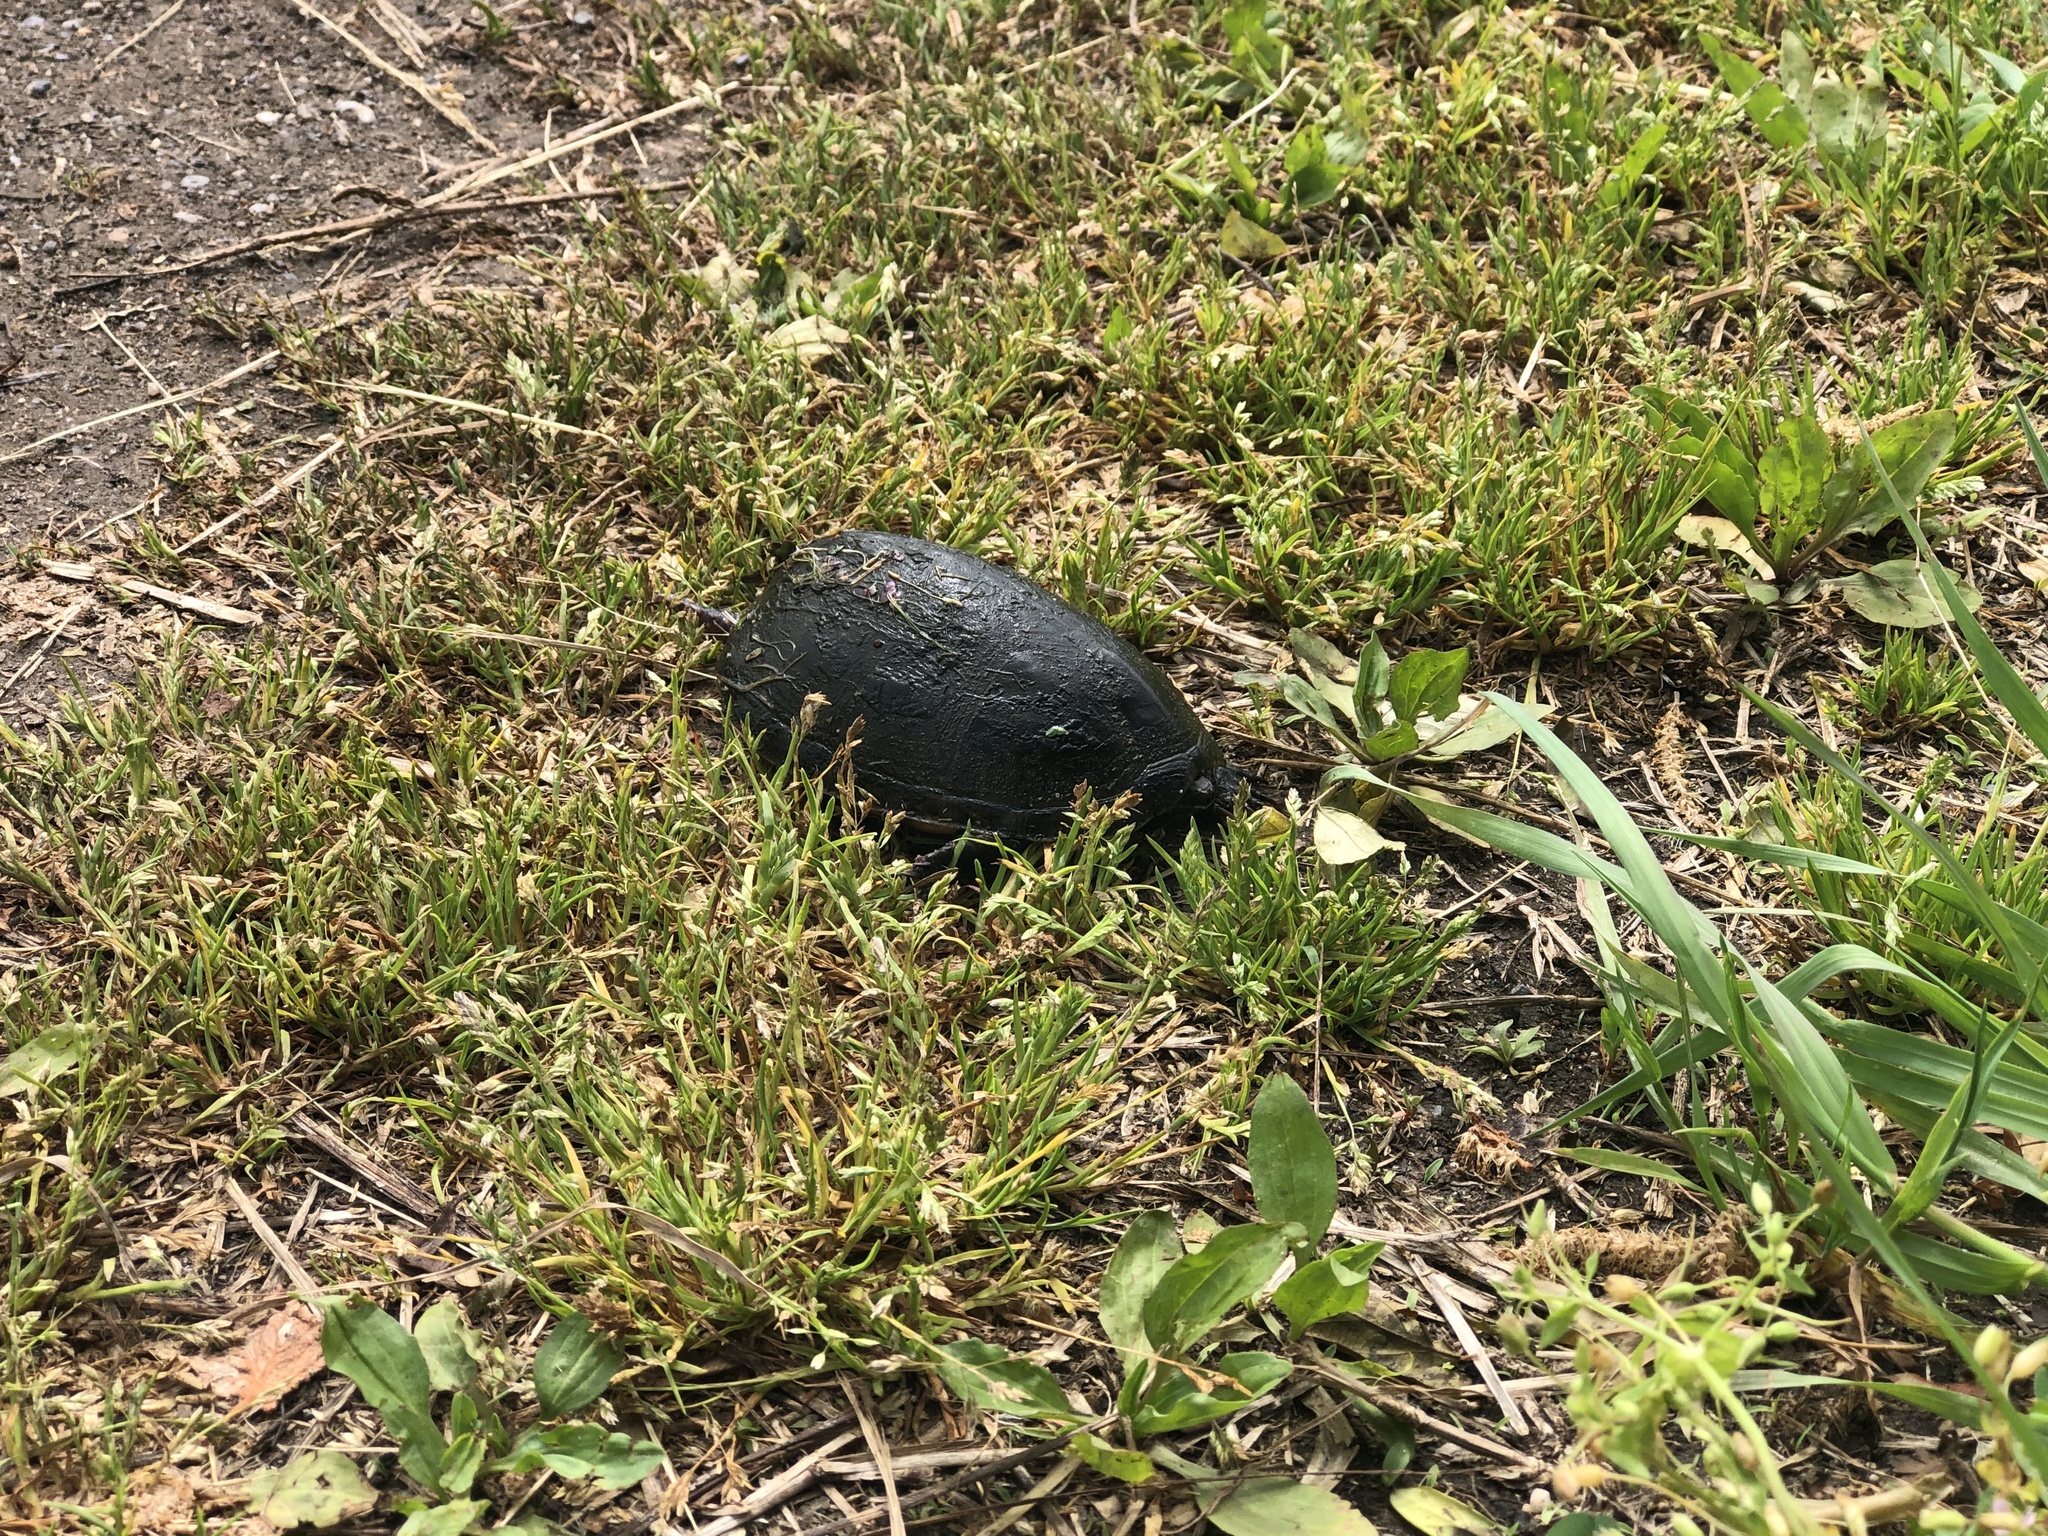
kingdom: Animalia
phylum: Chordata
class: Testudines
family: Kinosternidae
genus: Sternotherus
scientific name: Sternotherus odoratus
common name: Common musk turtle
